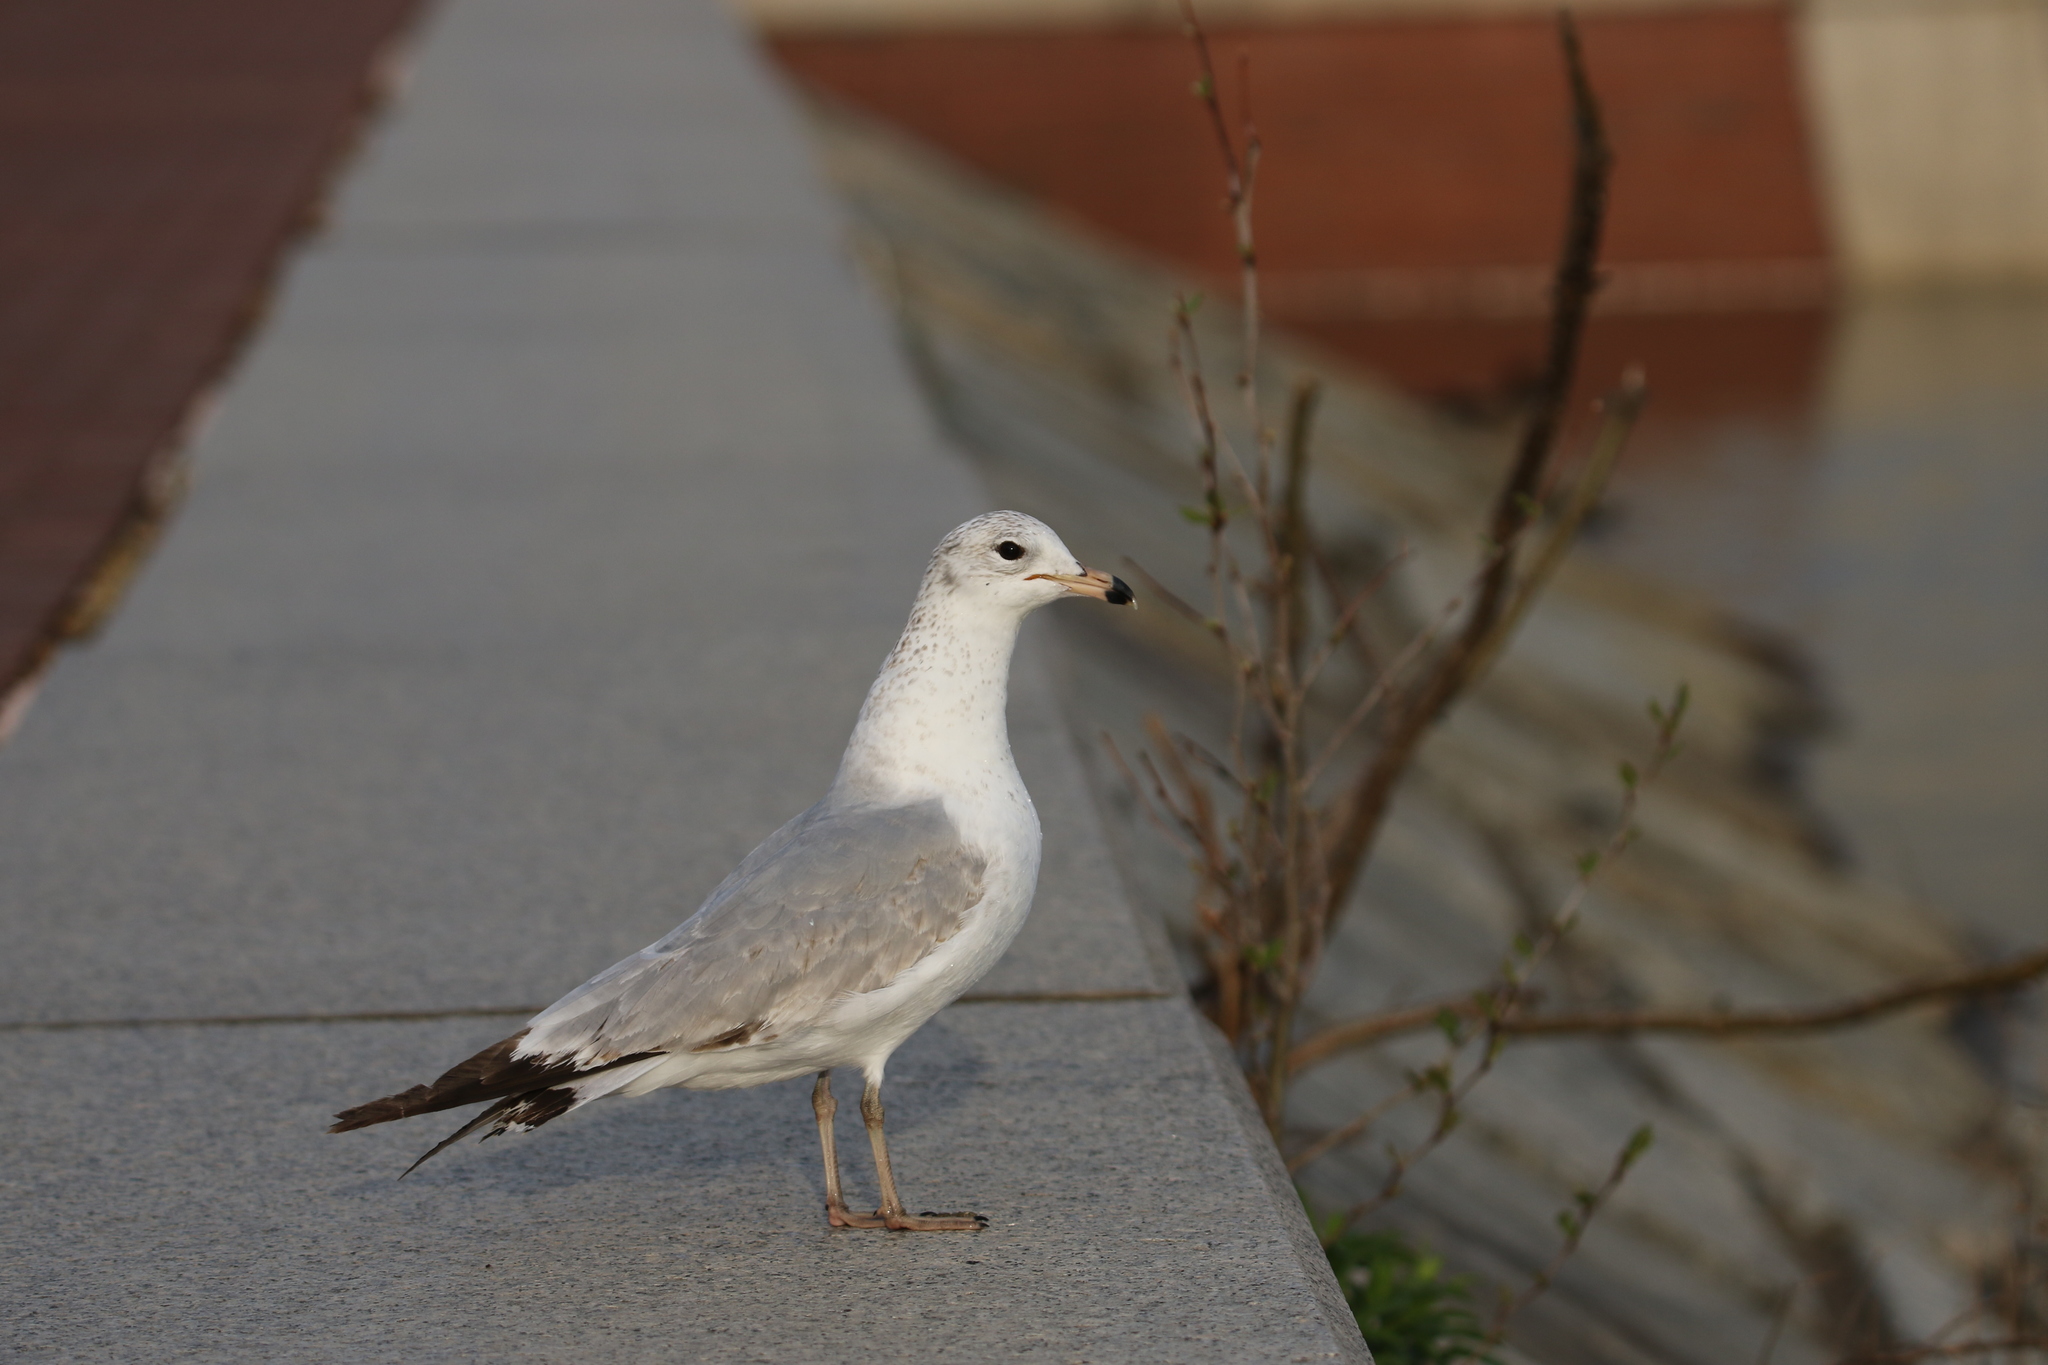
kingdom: Animalia
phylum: Chordata
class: Aves
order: Charadriiformes
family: Laridae
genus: Larus
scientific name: Larus delawarensis
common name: Ring-billed gull
